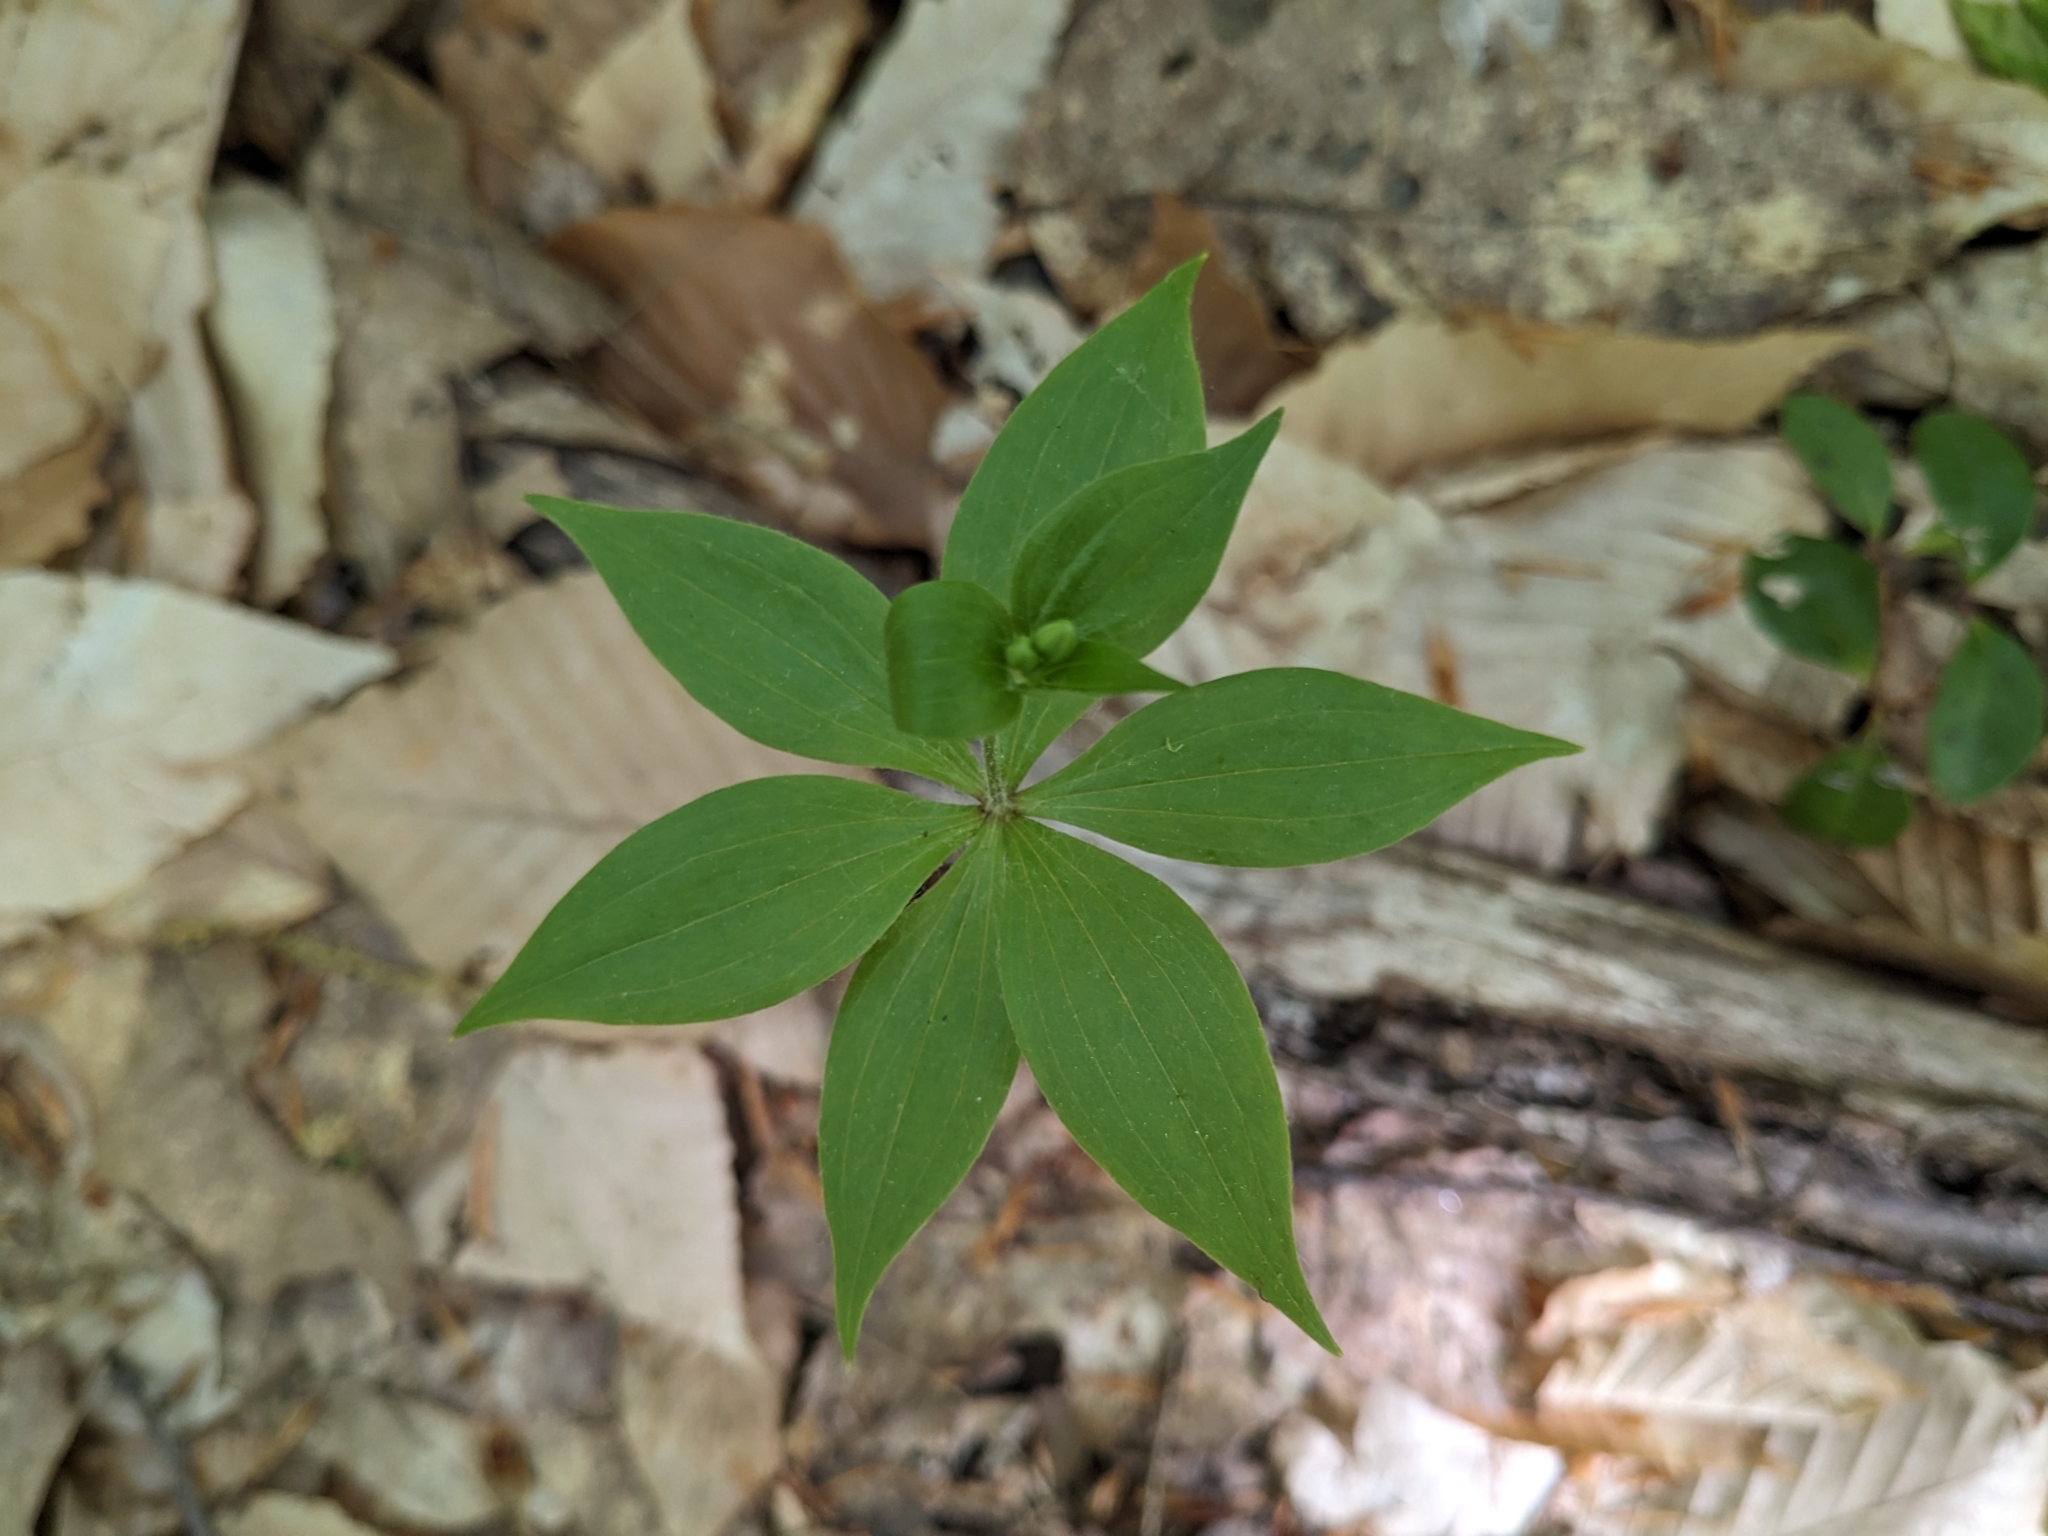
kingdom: Plantae
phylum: Tracheophyta
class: Liliopsida
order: Liliales
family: Liliaceae
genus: Medeola
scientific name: Medeola virginiana
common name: Indian cucumber-root
